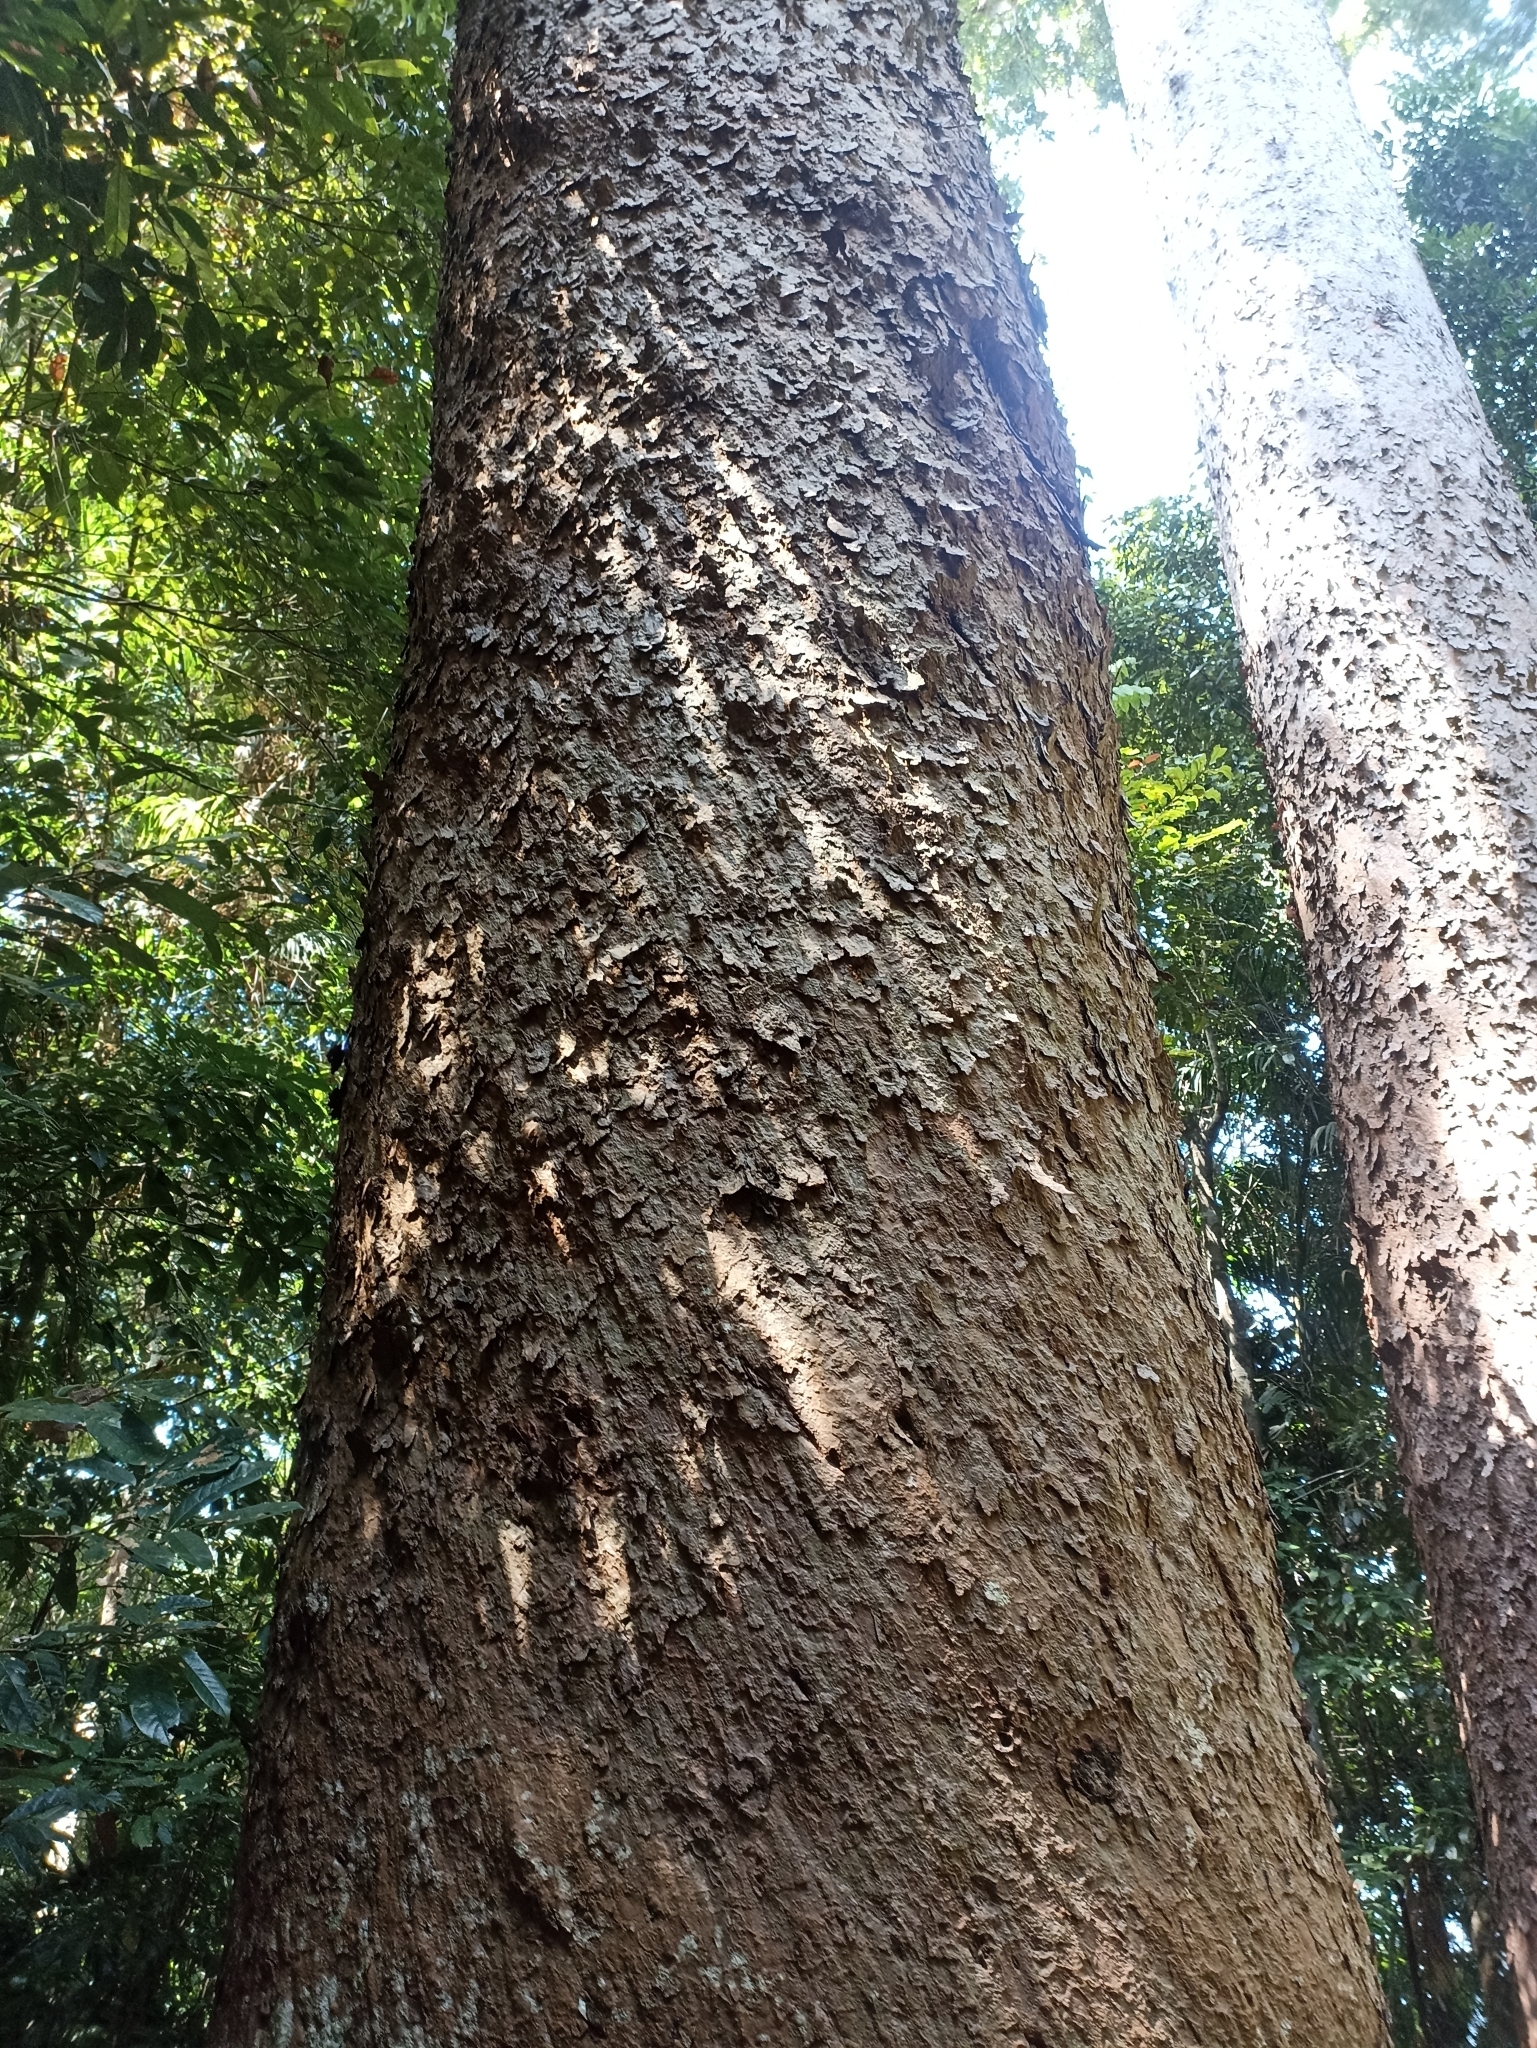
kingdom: Plantae
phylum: Tracheophyta
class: Pinopsida
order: Pinales
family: Araucariaceae
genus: Agathis
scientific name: Agathis microstachya
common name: Bull kauri
